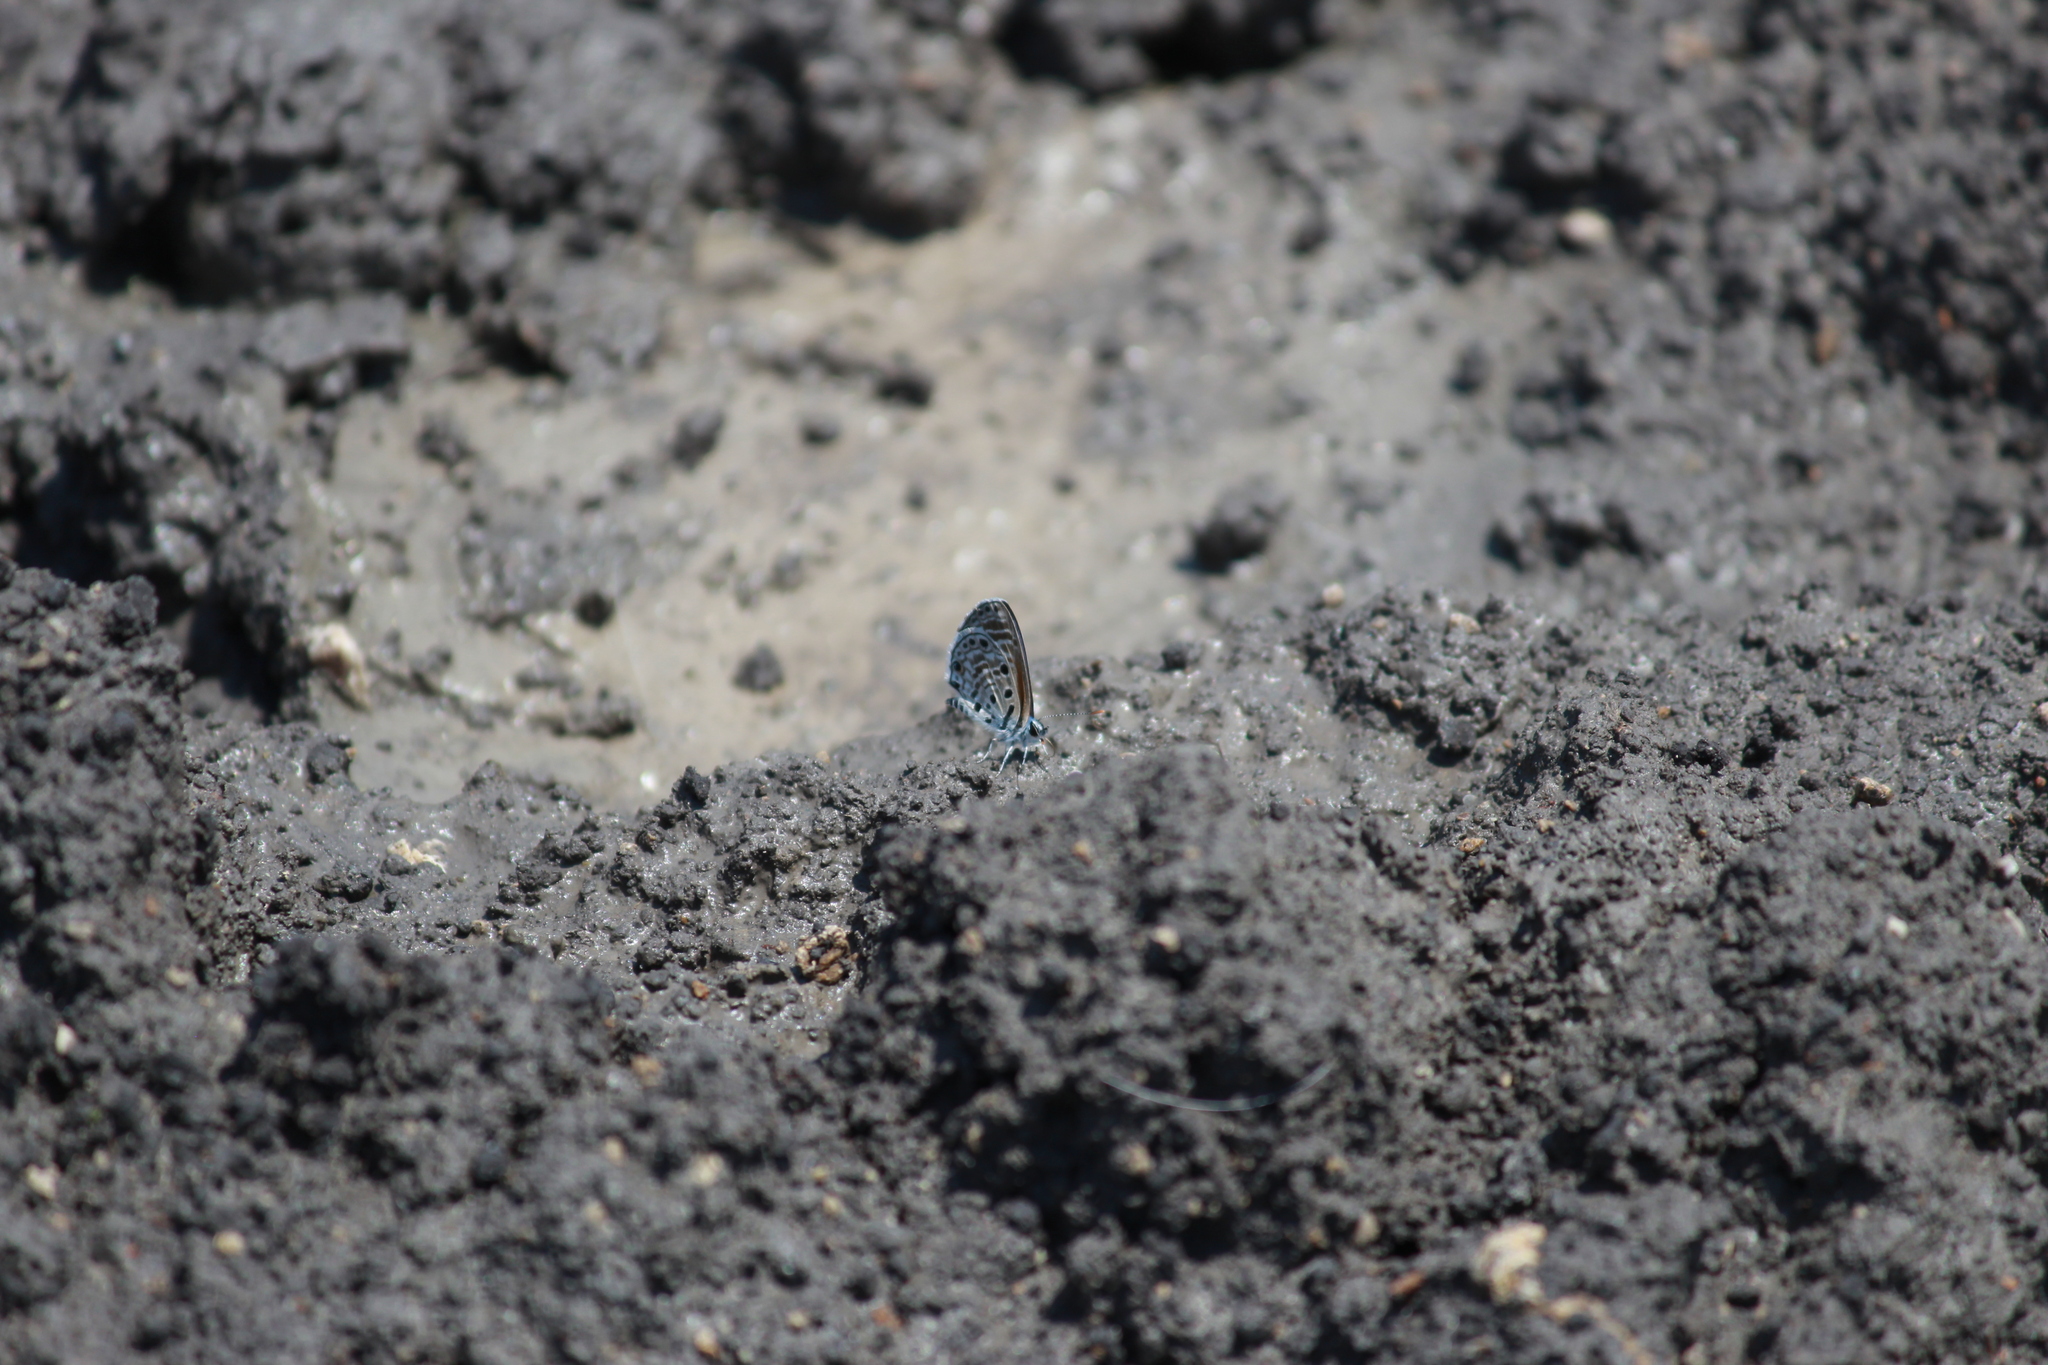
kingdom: Animalia
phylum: Arthropoda
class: Insecta
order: Lepidoptera
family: Lycaenidae
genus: Azanus
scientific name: Azanus jesous
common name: African babul blue
